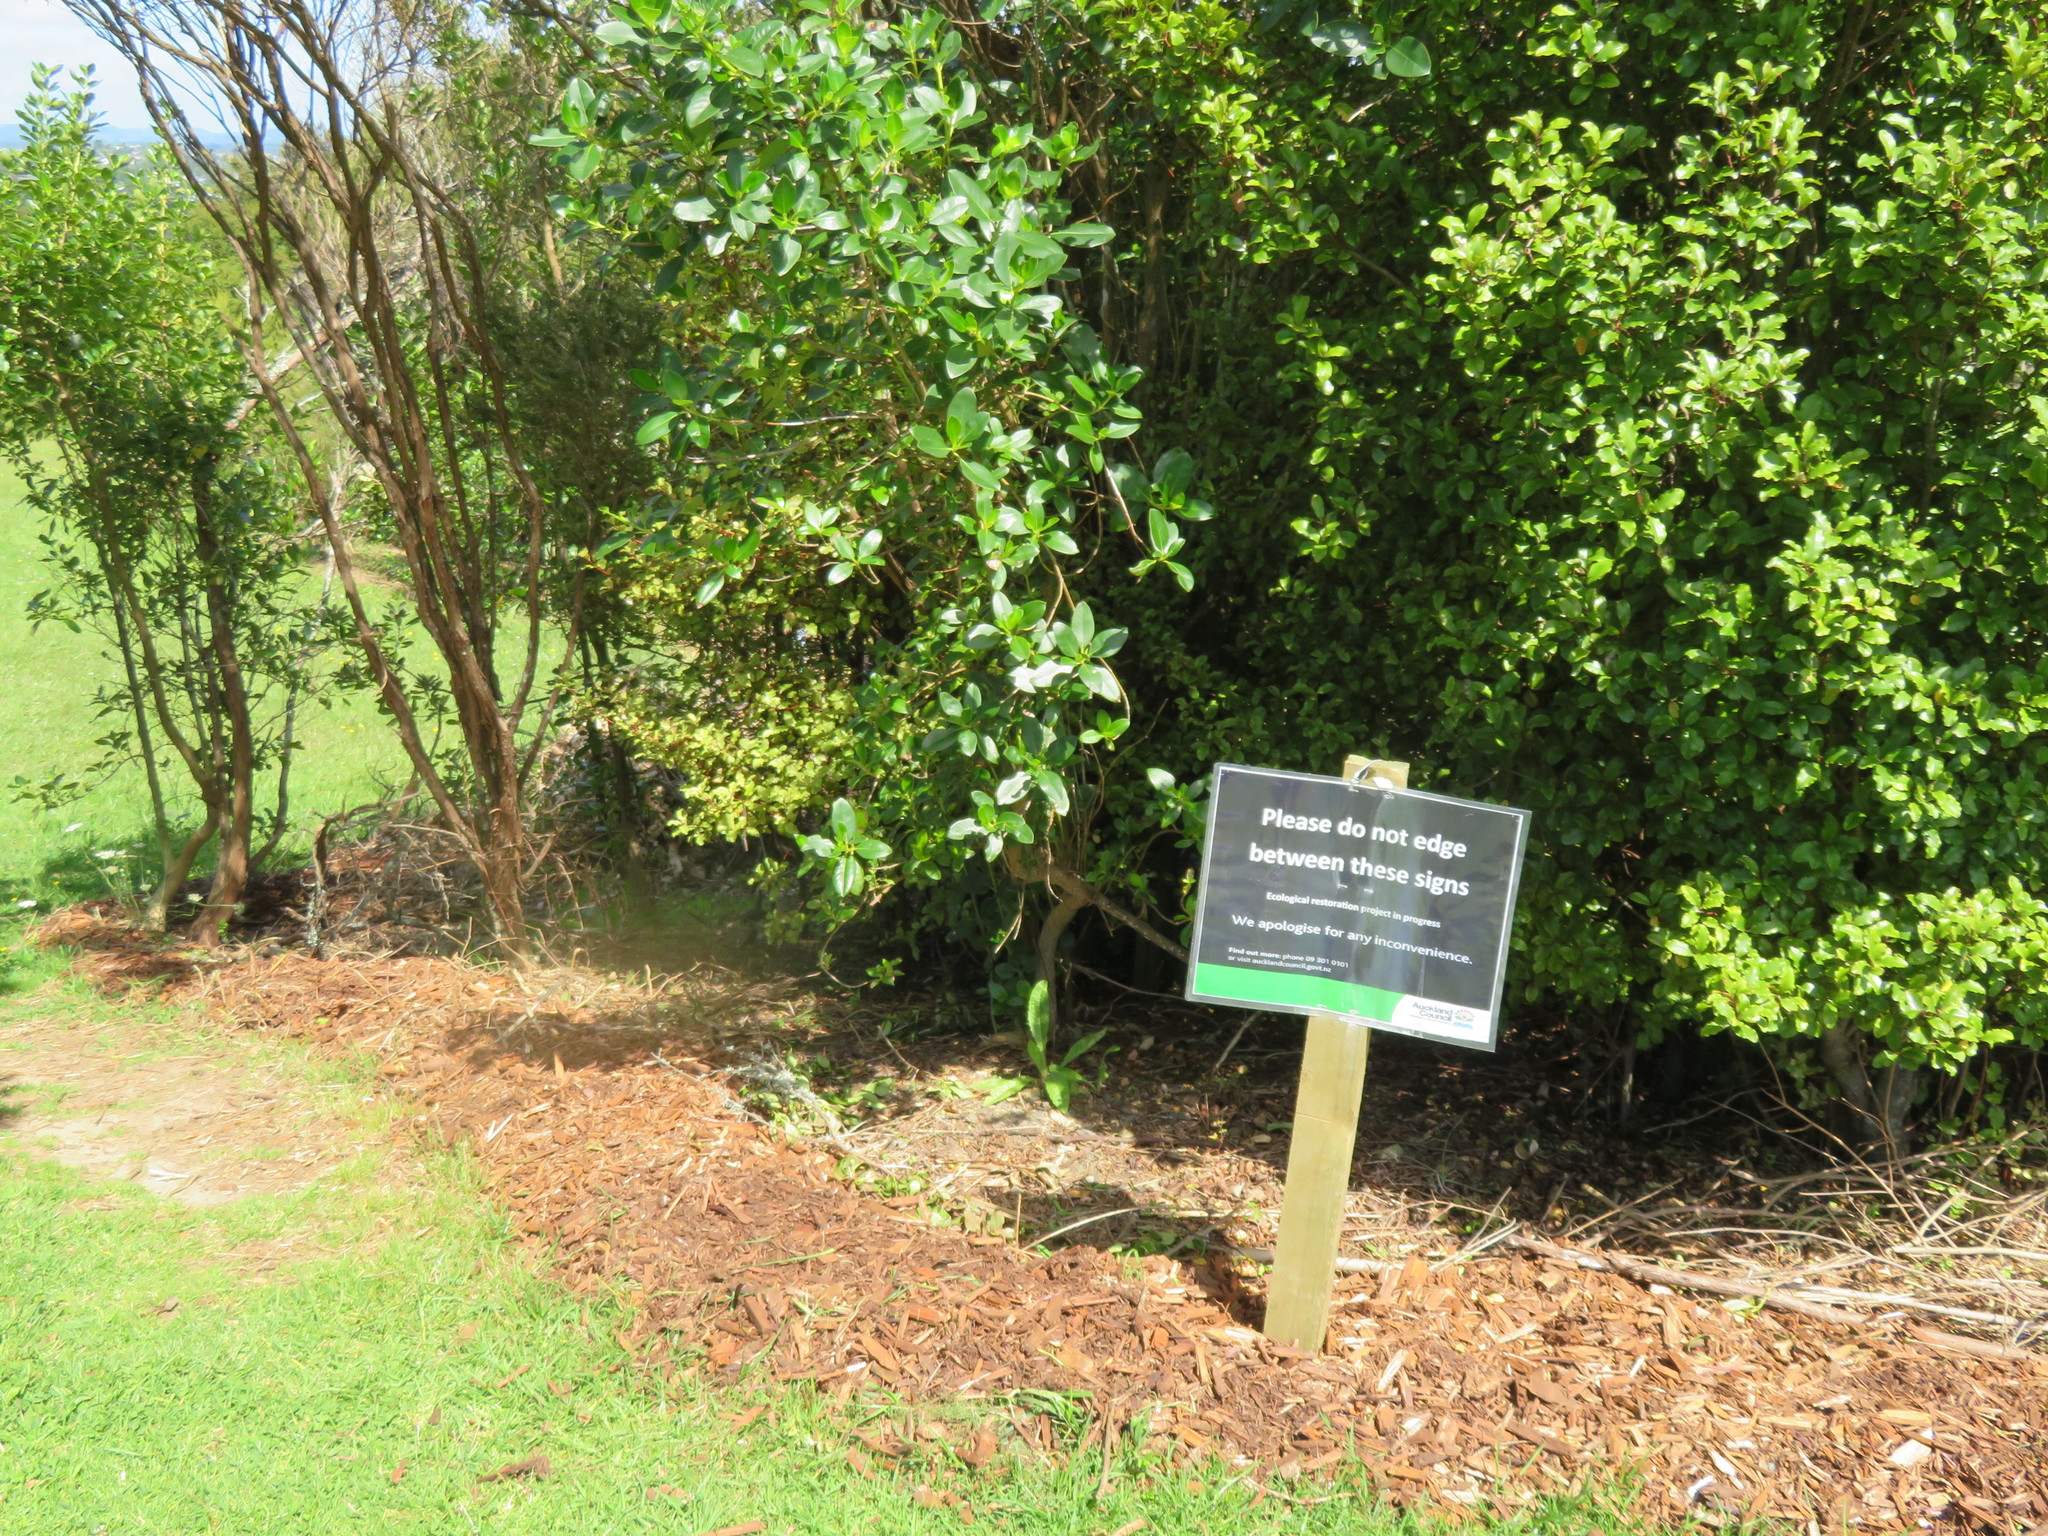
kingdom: Plantae
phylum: Tracheophyta
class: Magnoliopsida
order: Gentianales
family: Rubiaceae
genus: Coprosma
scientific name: Coprosma robusta
